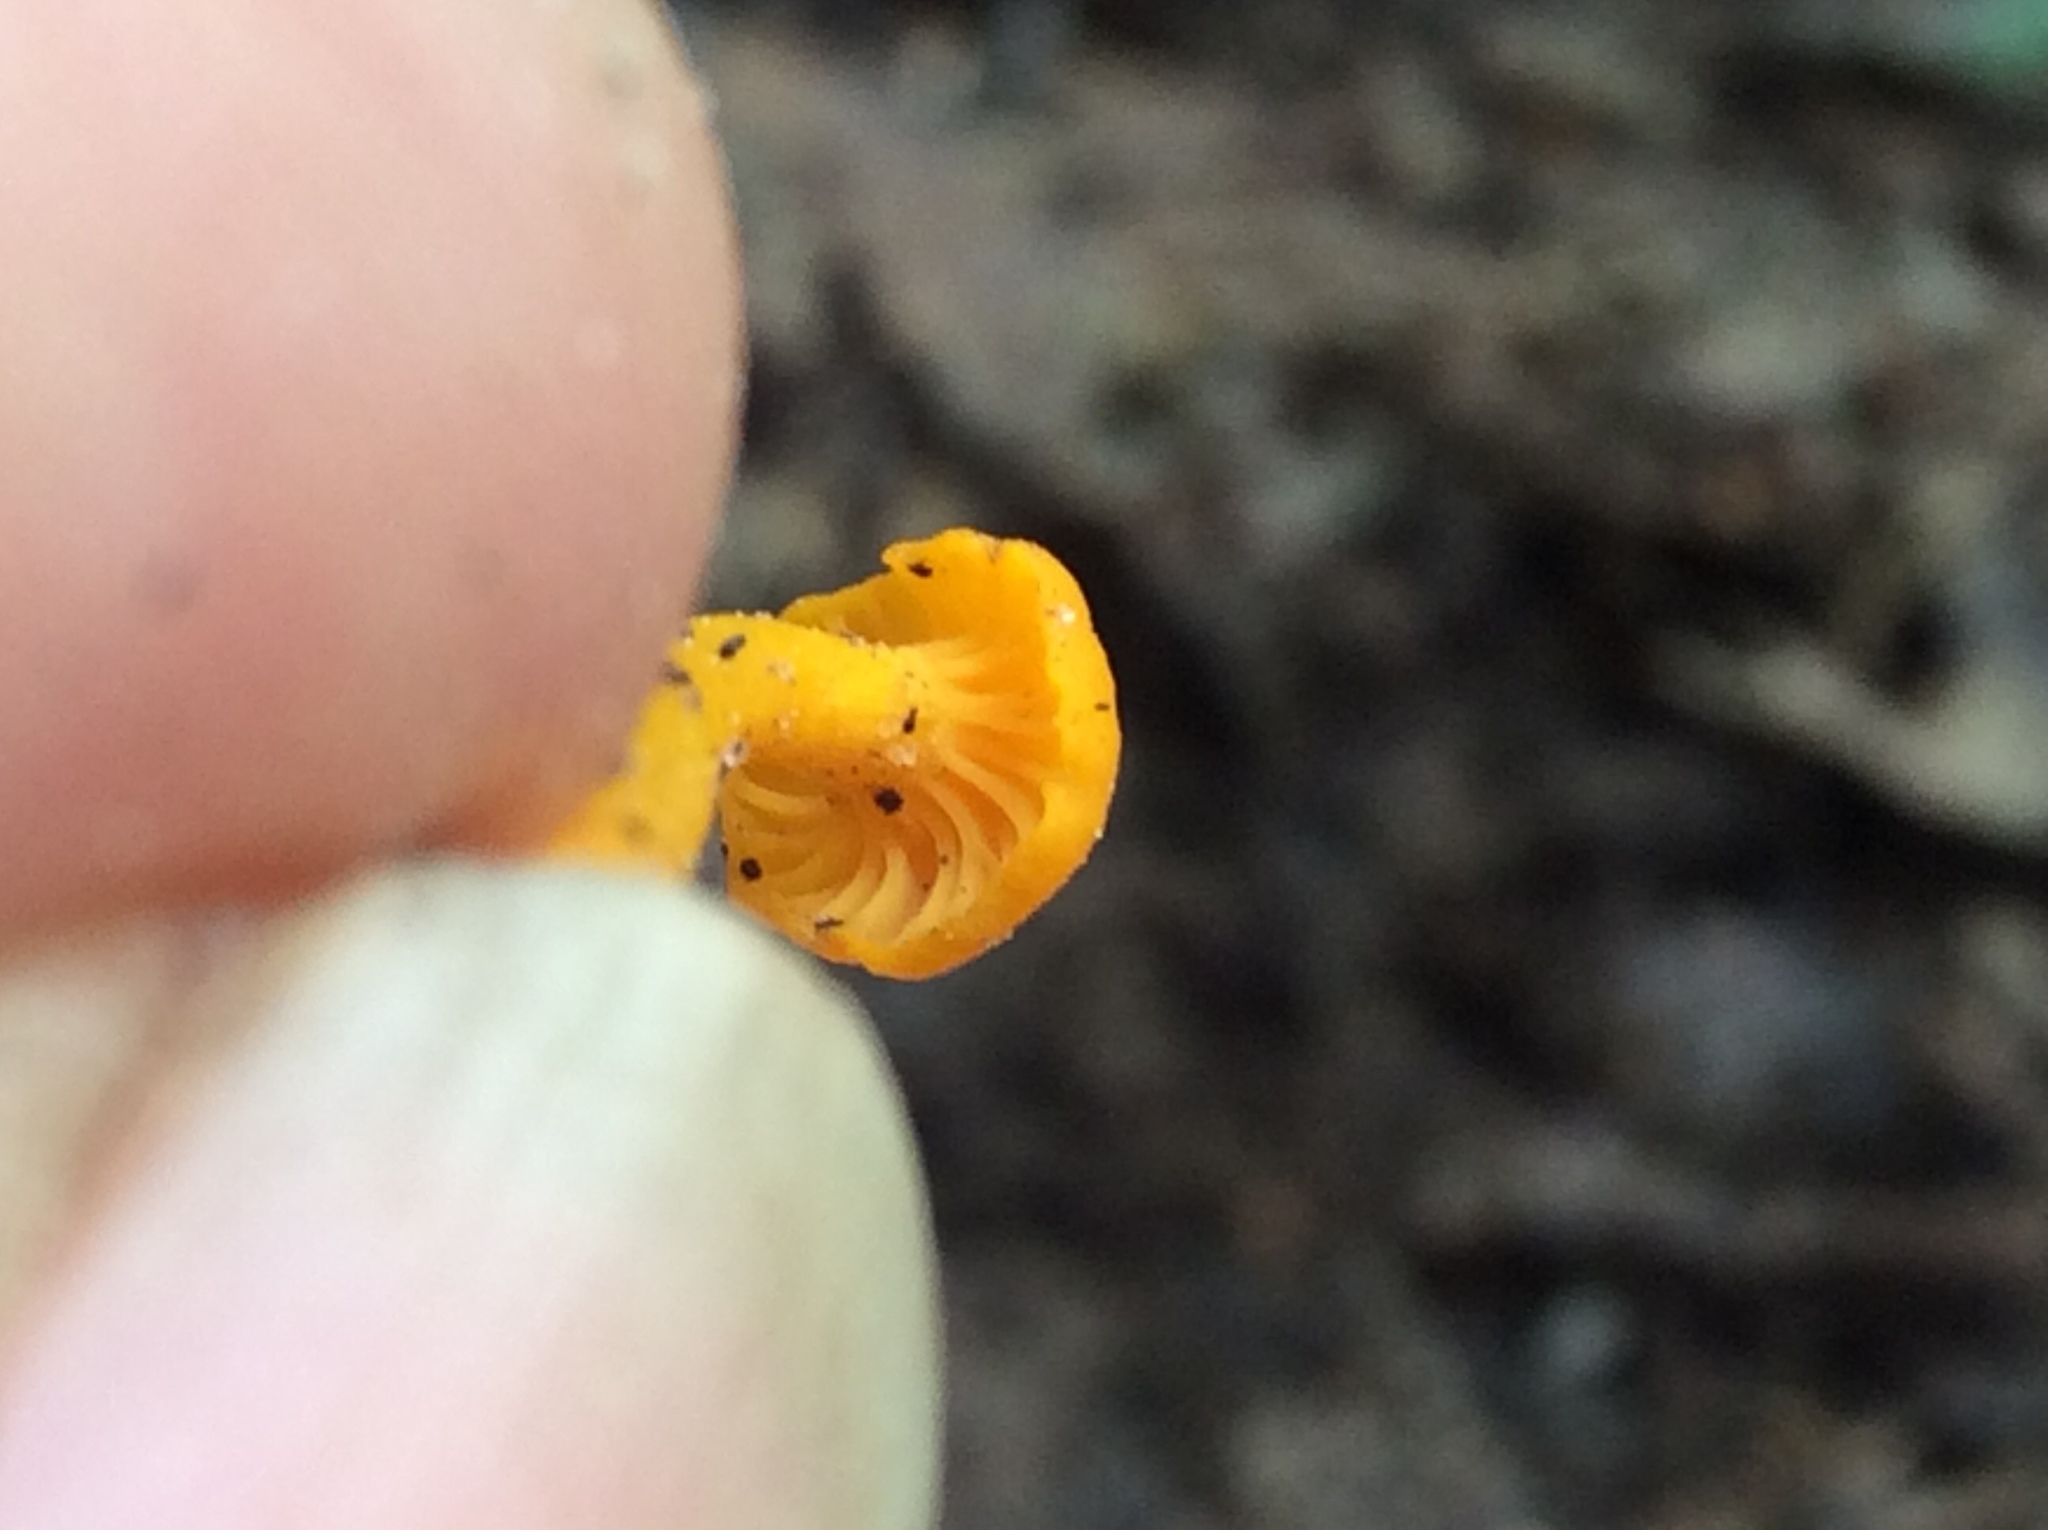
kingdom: Fungi
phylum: Basidiomycota
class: Agaricomycetes
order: Cantharellales
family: Hydnaceae
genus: Cantharellus
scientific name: Cantharellus minor
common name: Small chanterelle
